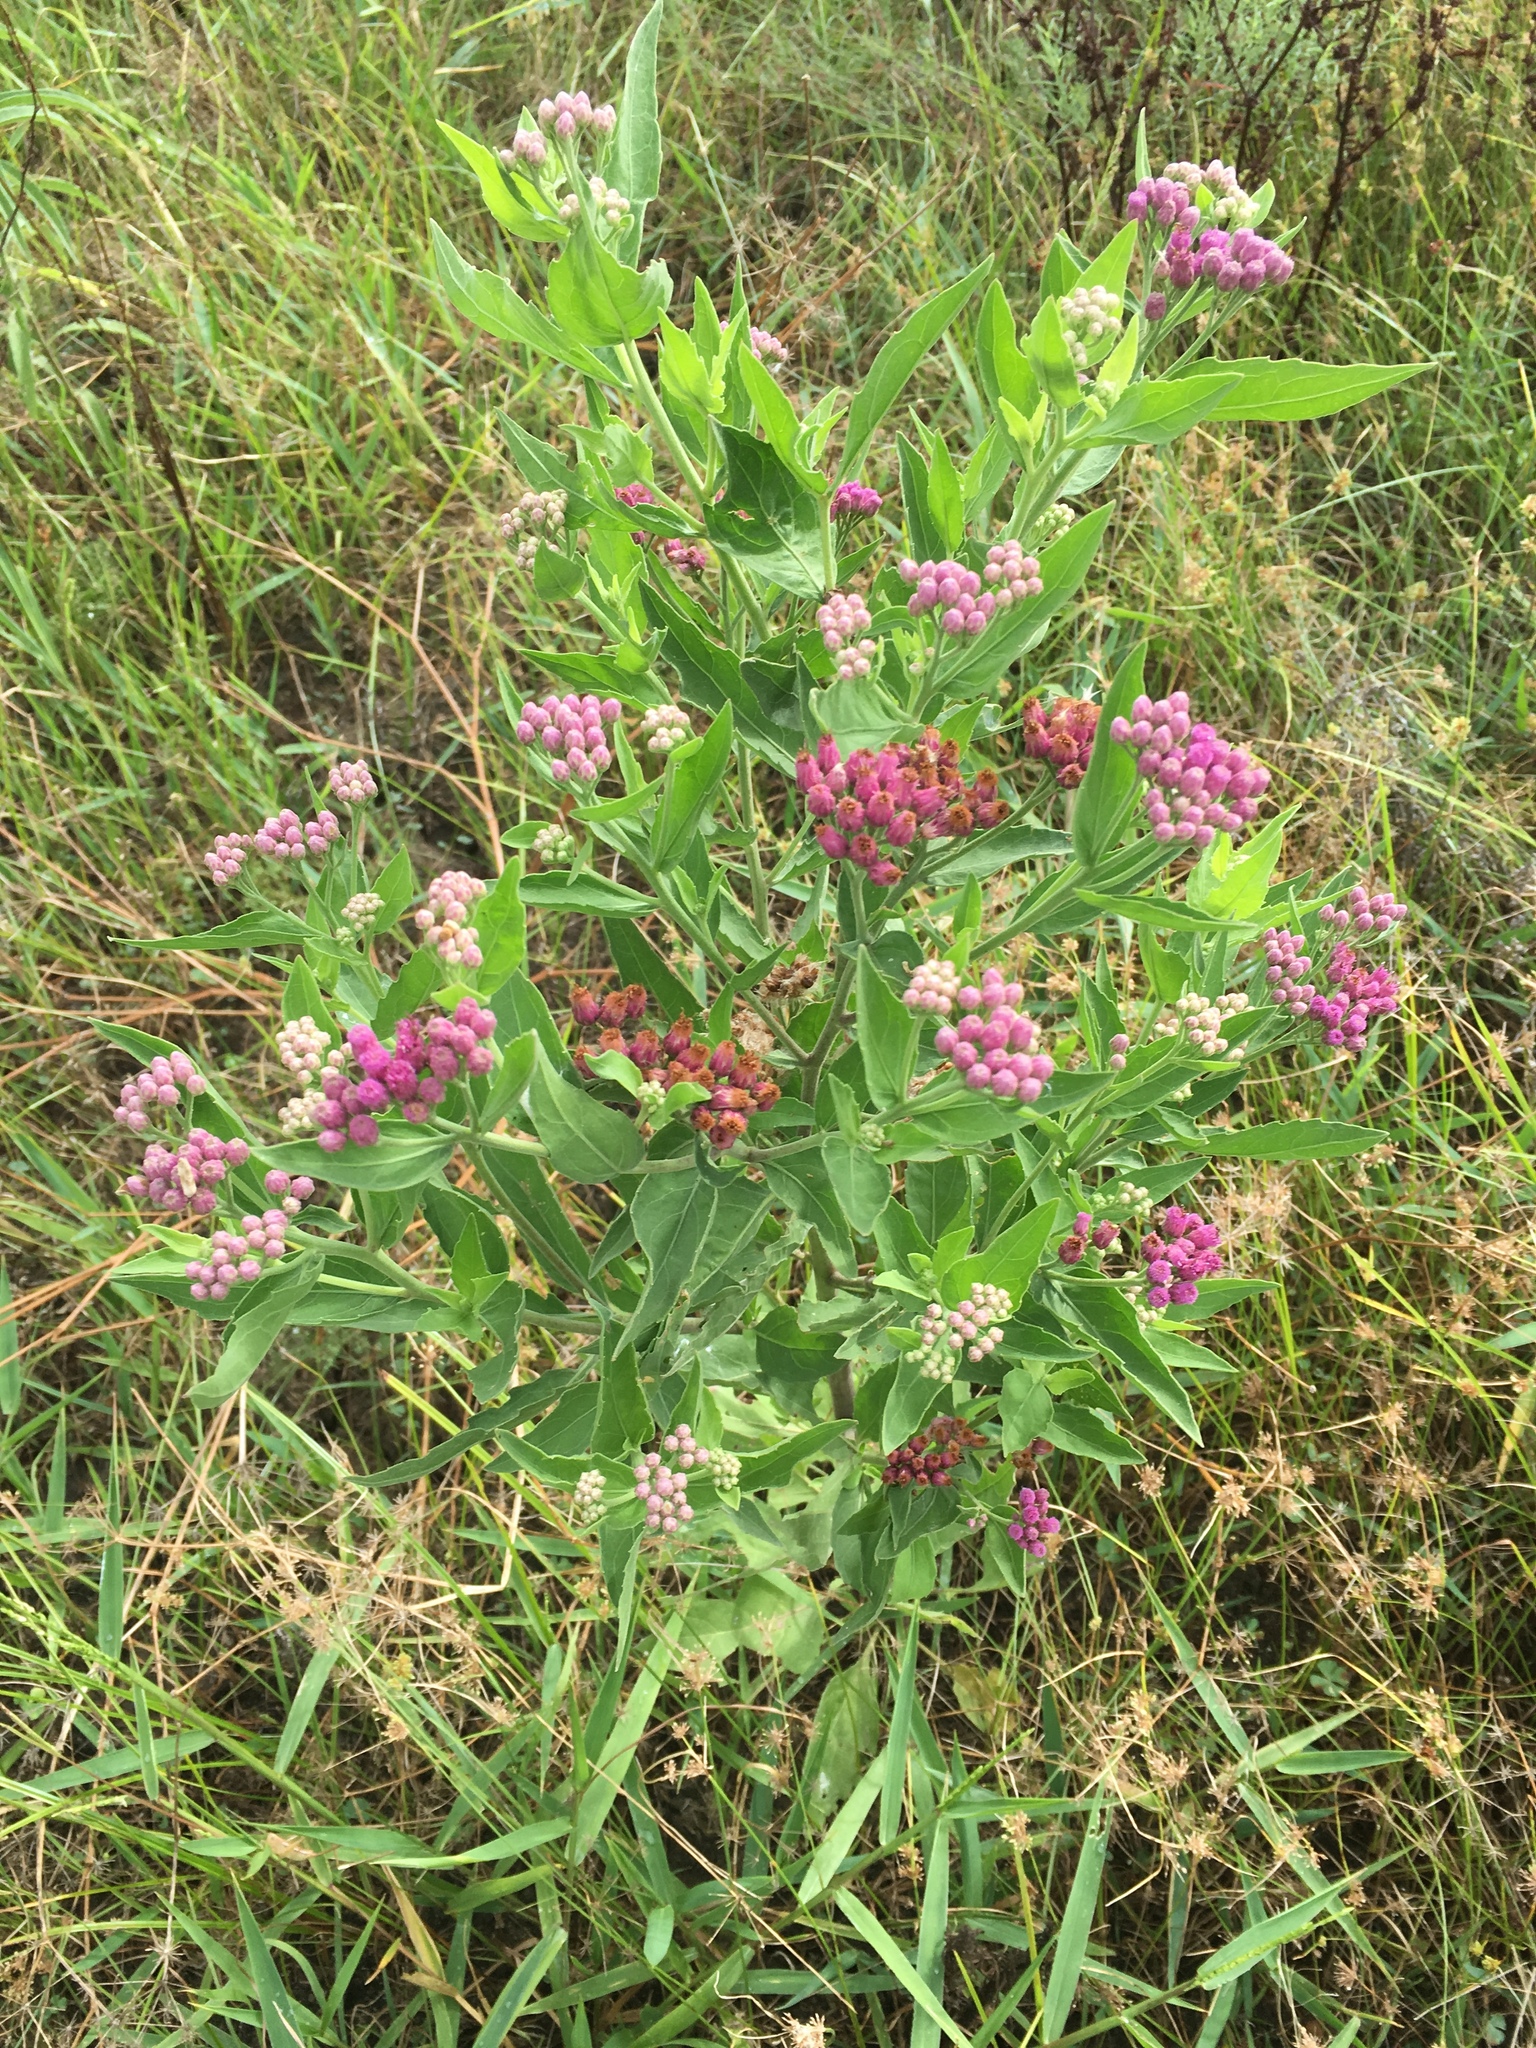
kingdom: Plantae
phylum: Tracheophyta
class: Magnoliopsida
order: Asterales
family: Asteraceae
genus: Pluchea
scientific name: Pluchea odorata
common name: Saltmarsh fleabane
